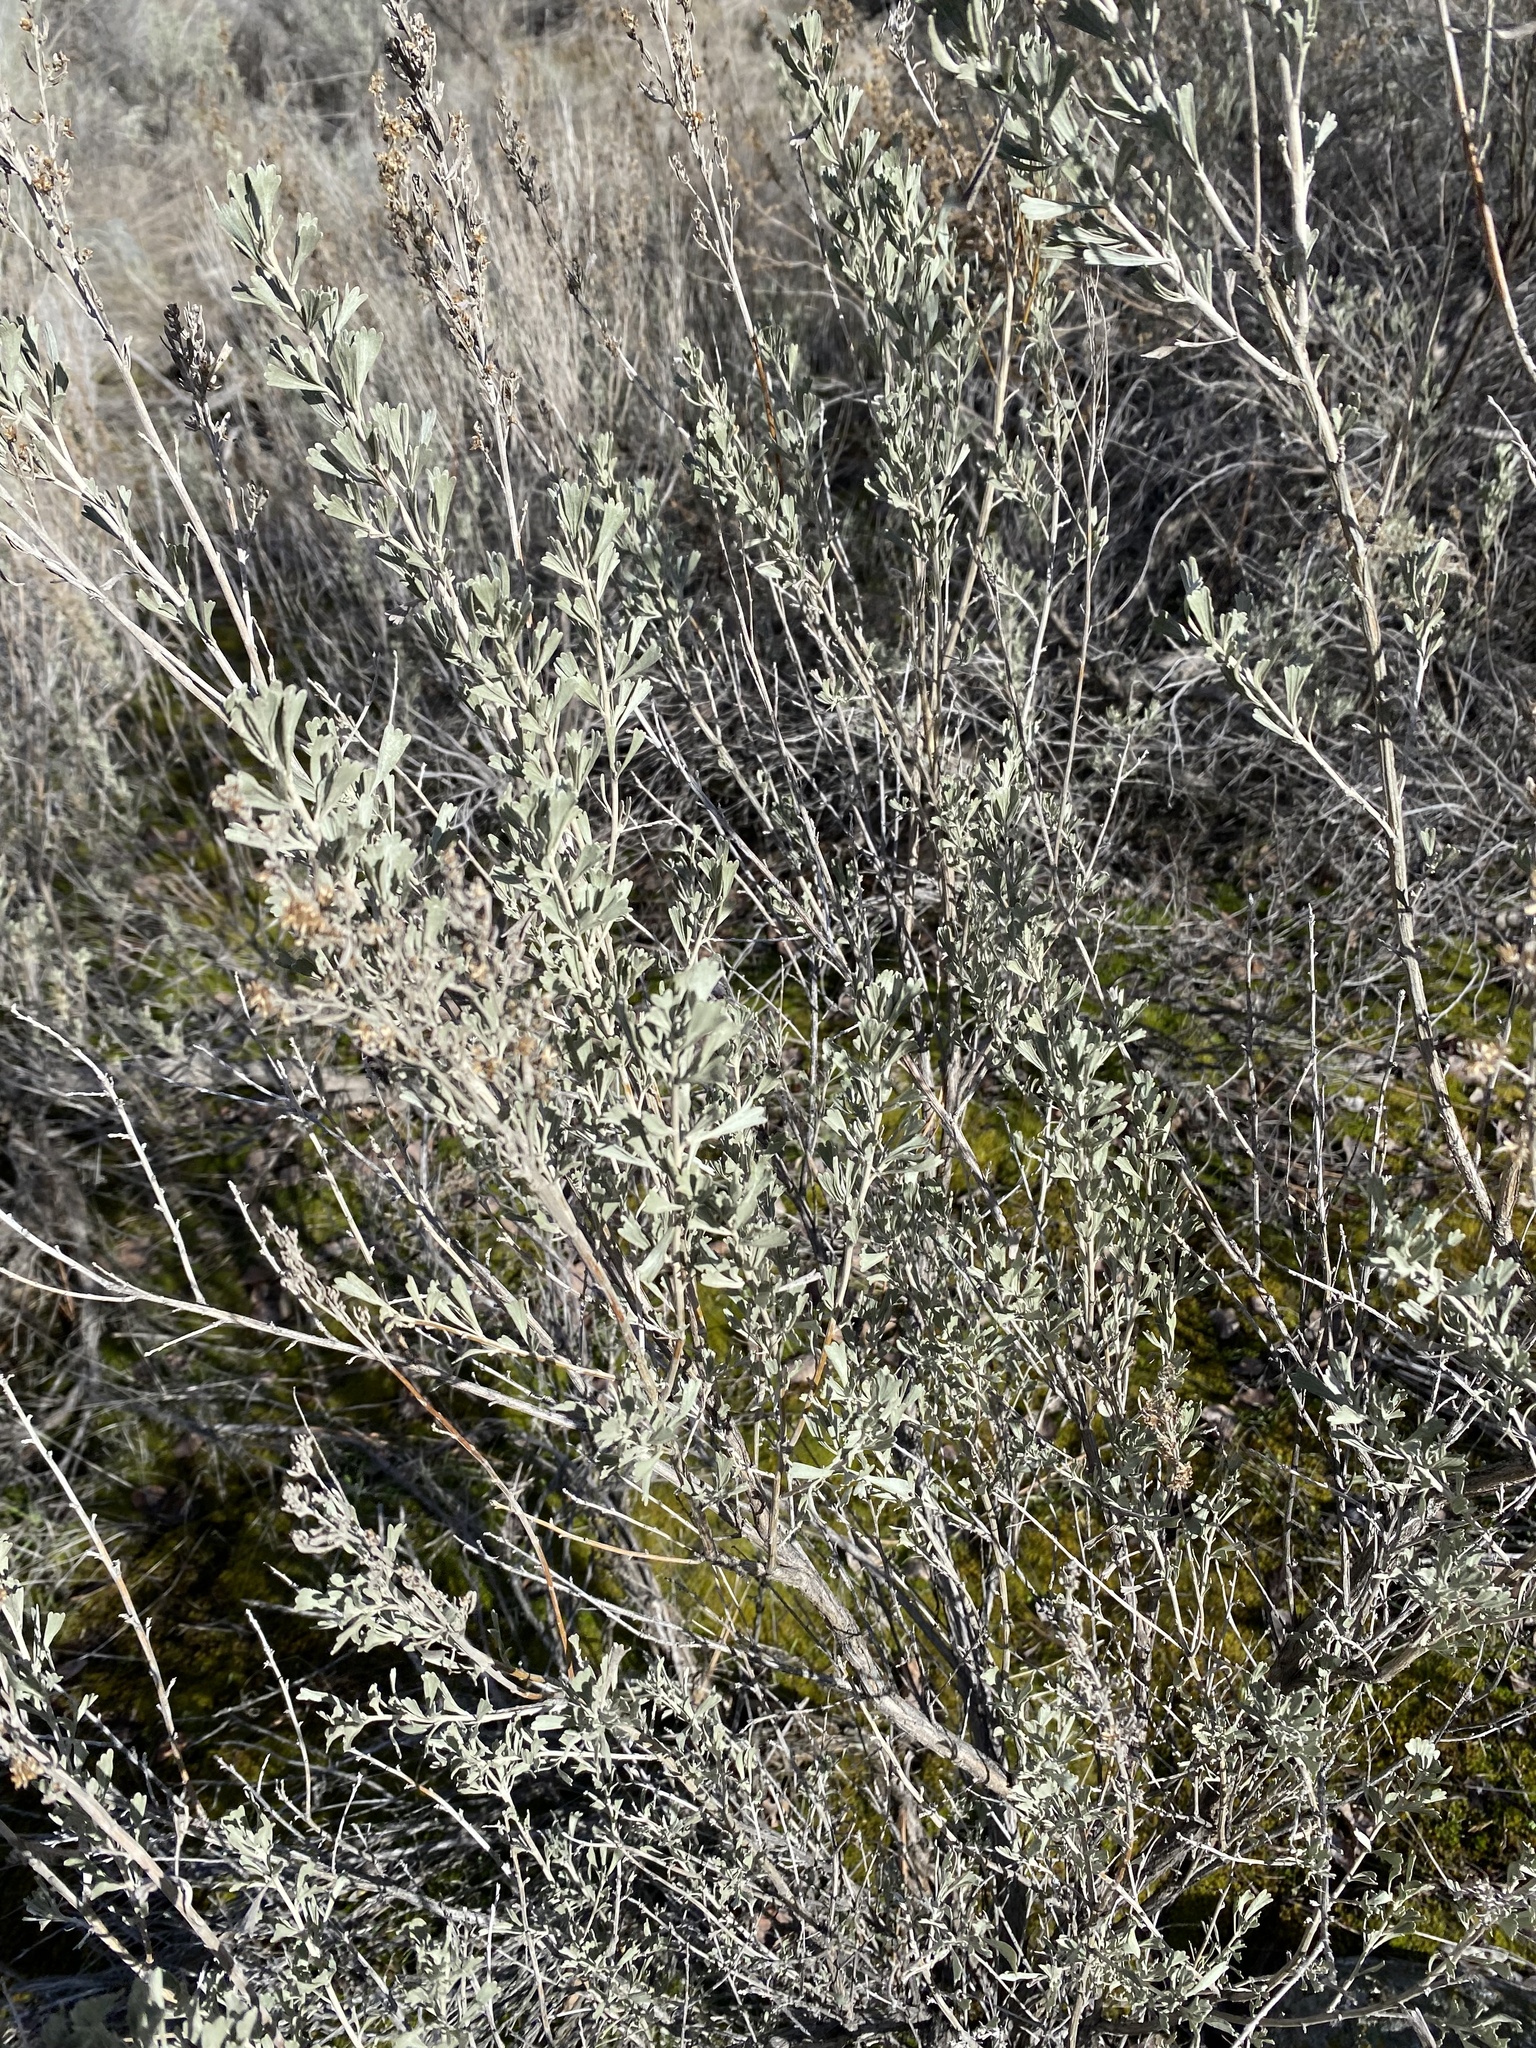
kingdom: Plantae
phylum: Tracheophyta
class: Magnoliopsida
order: Asterales
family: Asteraceae
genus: Artemisia
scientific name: Artemisia tridentata
